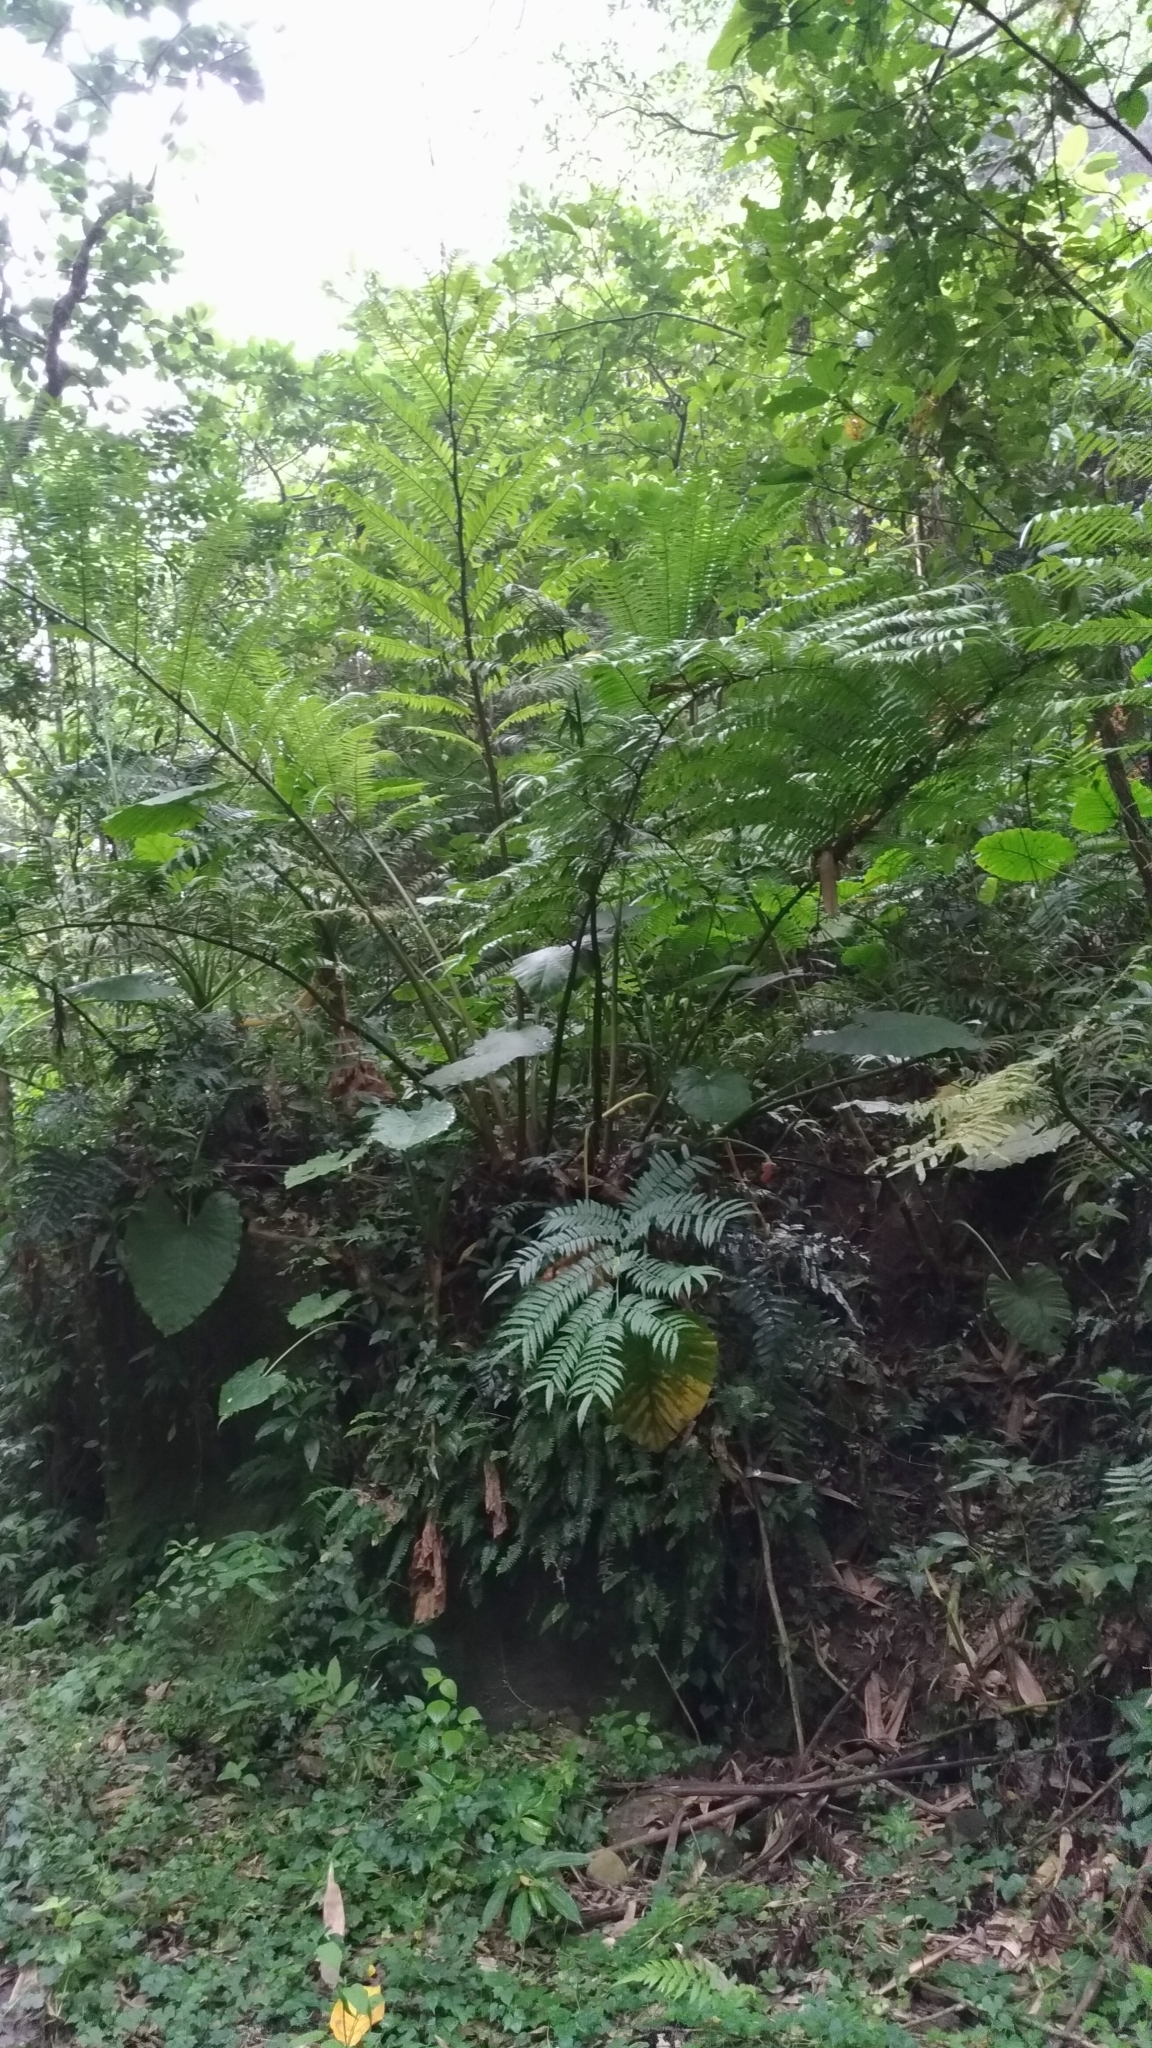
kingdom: Plantae
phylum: Tracheophyta
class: Polypodiopsida
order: Marattiales
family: Marattiaceae
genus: Angiopteris
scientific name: Angiopteris lygodiifolia
